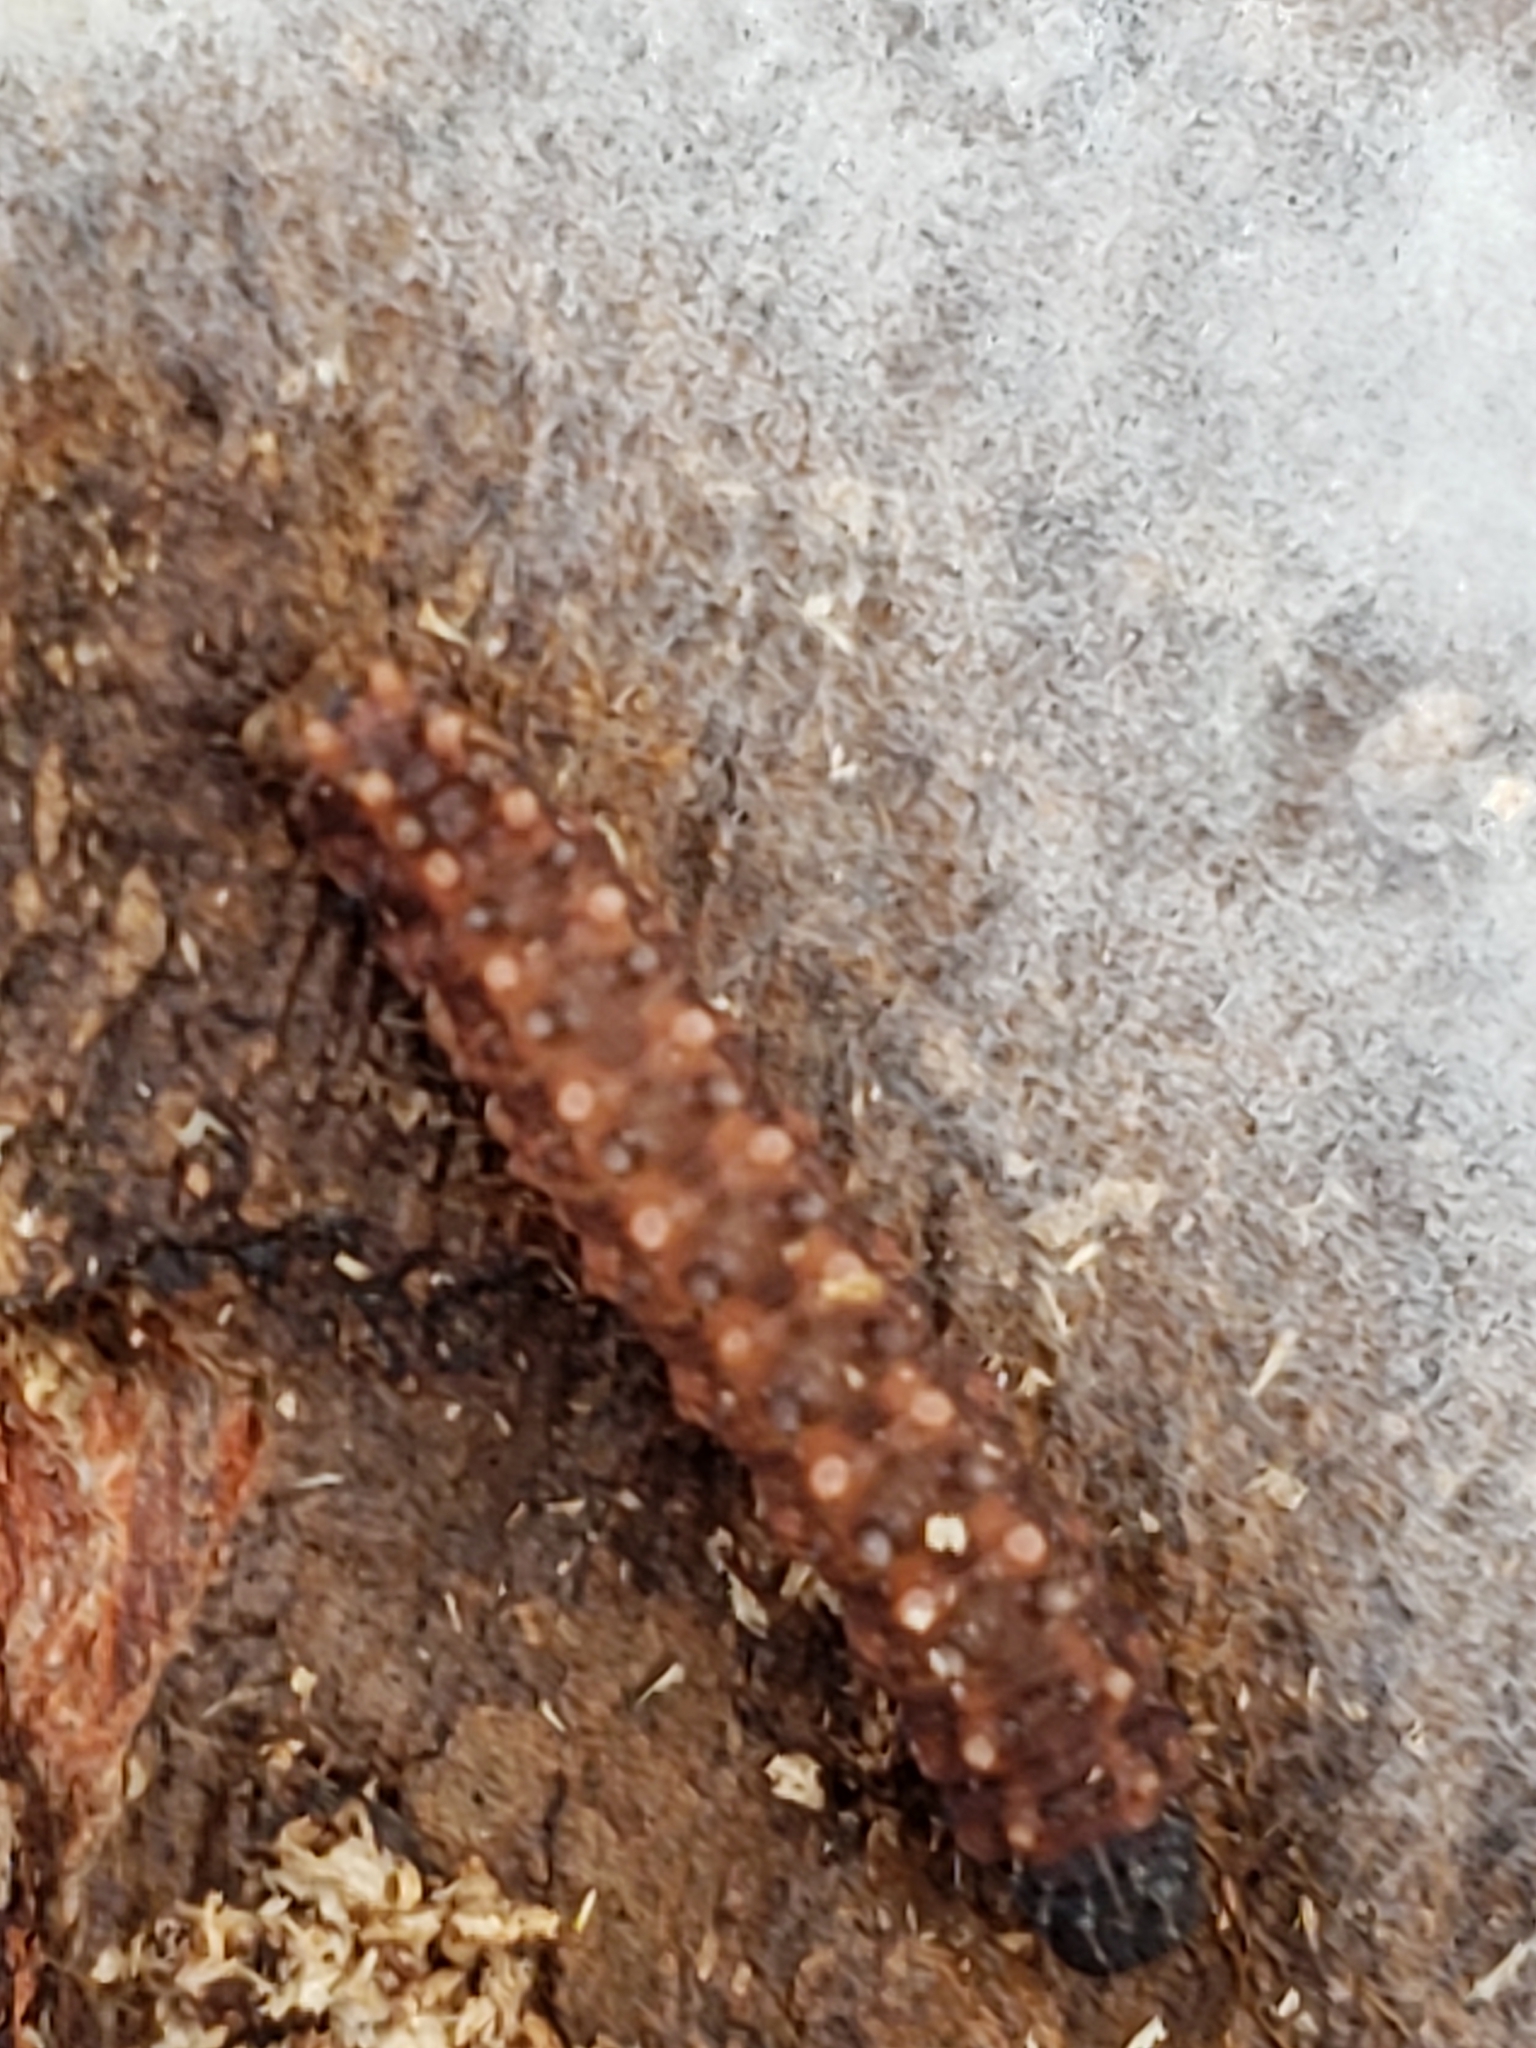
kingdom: Animalia
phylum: Arthropoda
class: Insecta
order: Lepidoptera
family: Erebidae
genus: Idia
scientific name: Idia lubricalis
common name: Twin-striped tabby
